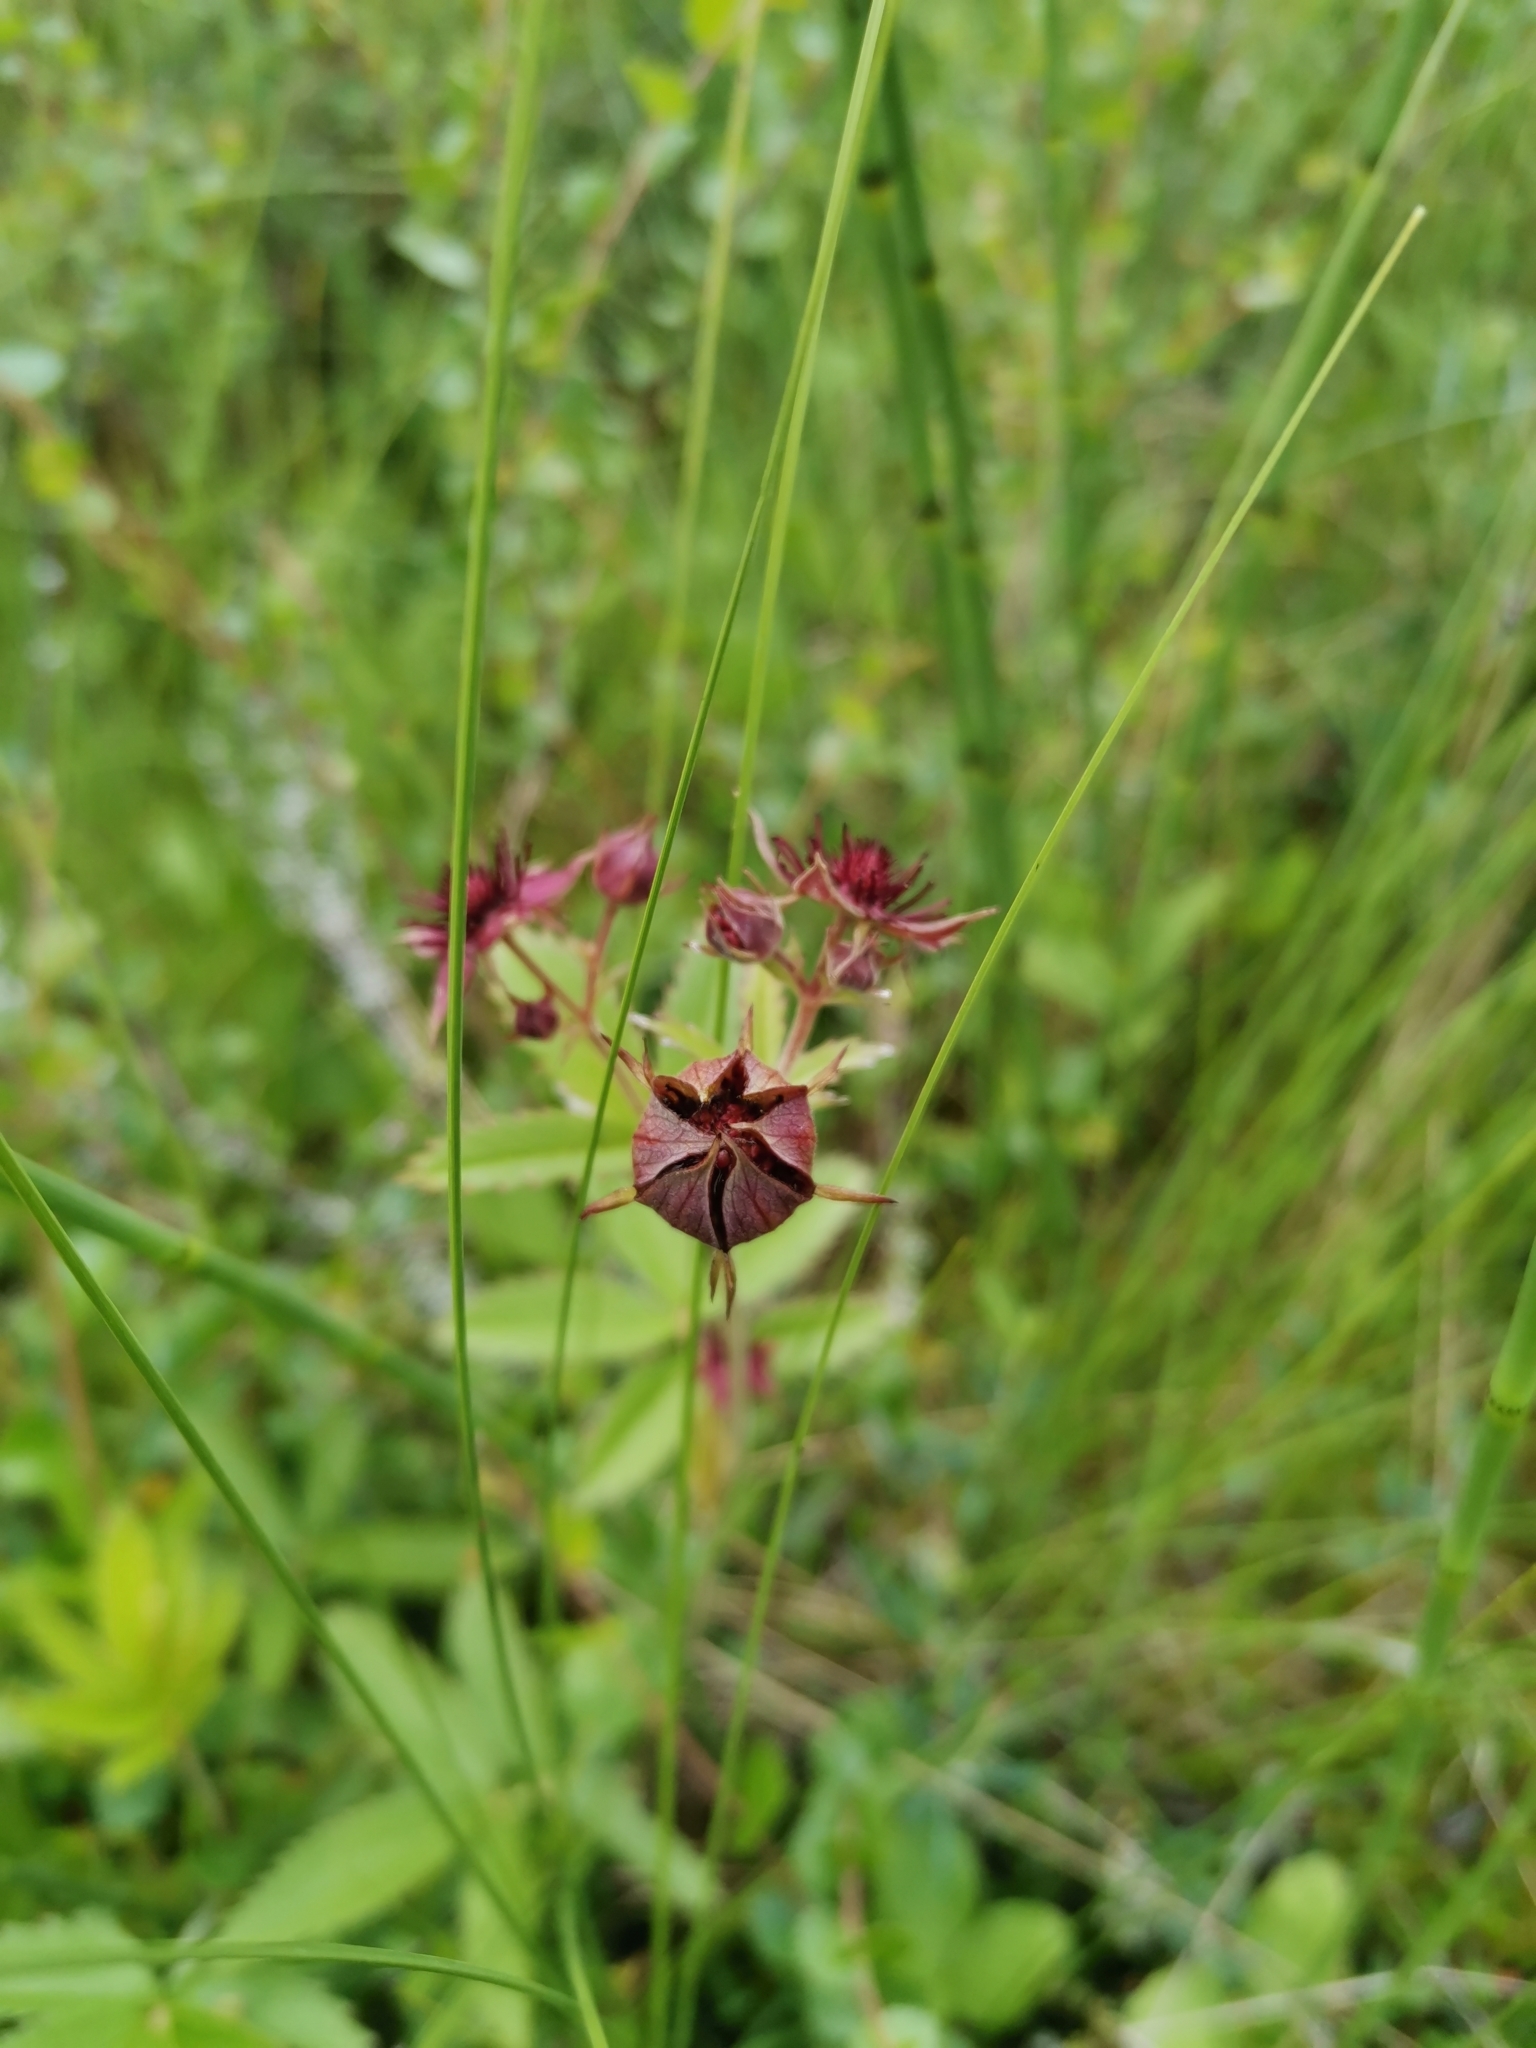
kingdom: Plantae
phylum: Tracheophyta
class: Magnoliopsida
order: Rosales
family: Rosaceae
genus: Comarum
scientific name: Comarum palustre
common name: Marsh cinquefoil
